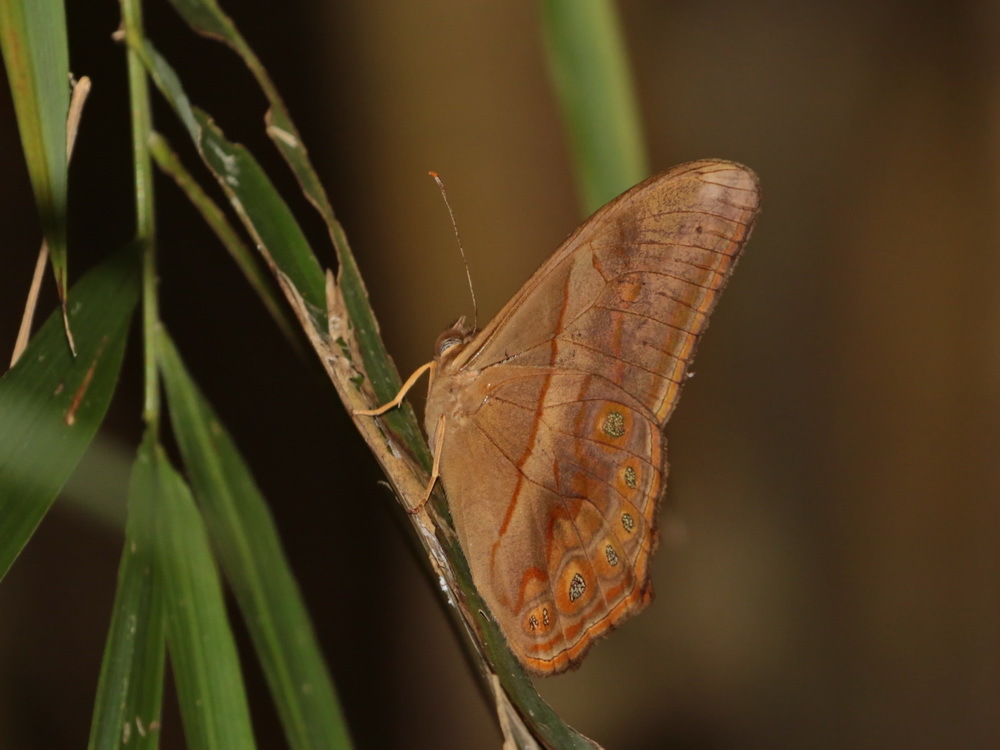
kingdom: Animalia
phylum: Arthropoda
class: Insecta
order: Lepidoptera
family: Nymphalidae
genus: Lethe
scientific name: Lethe minerva
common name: Banded red forester
